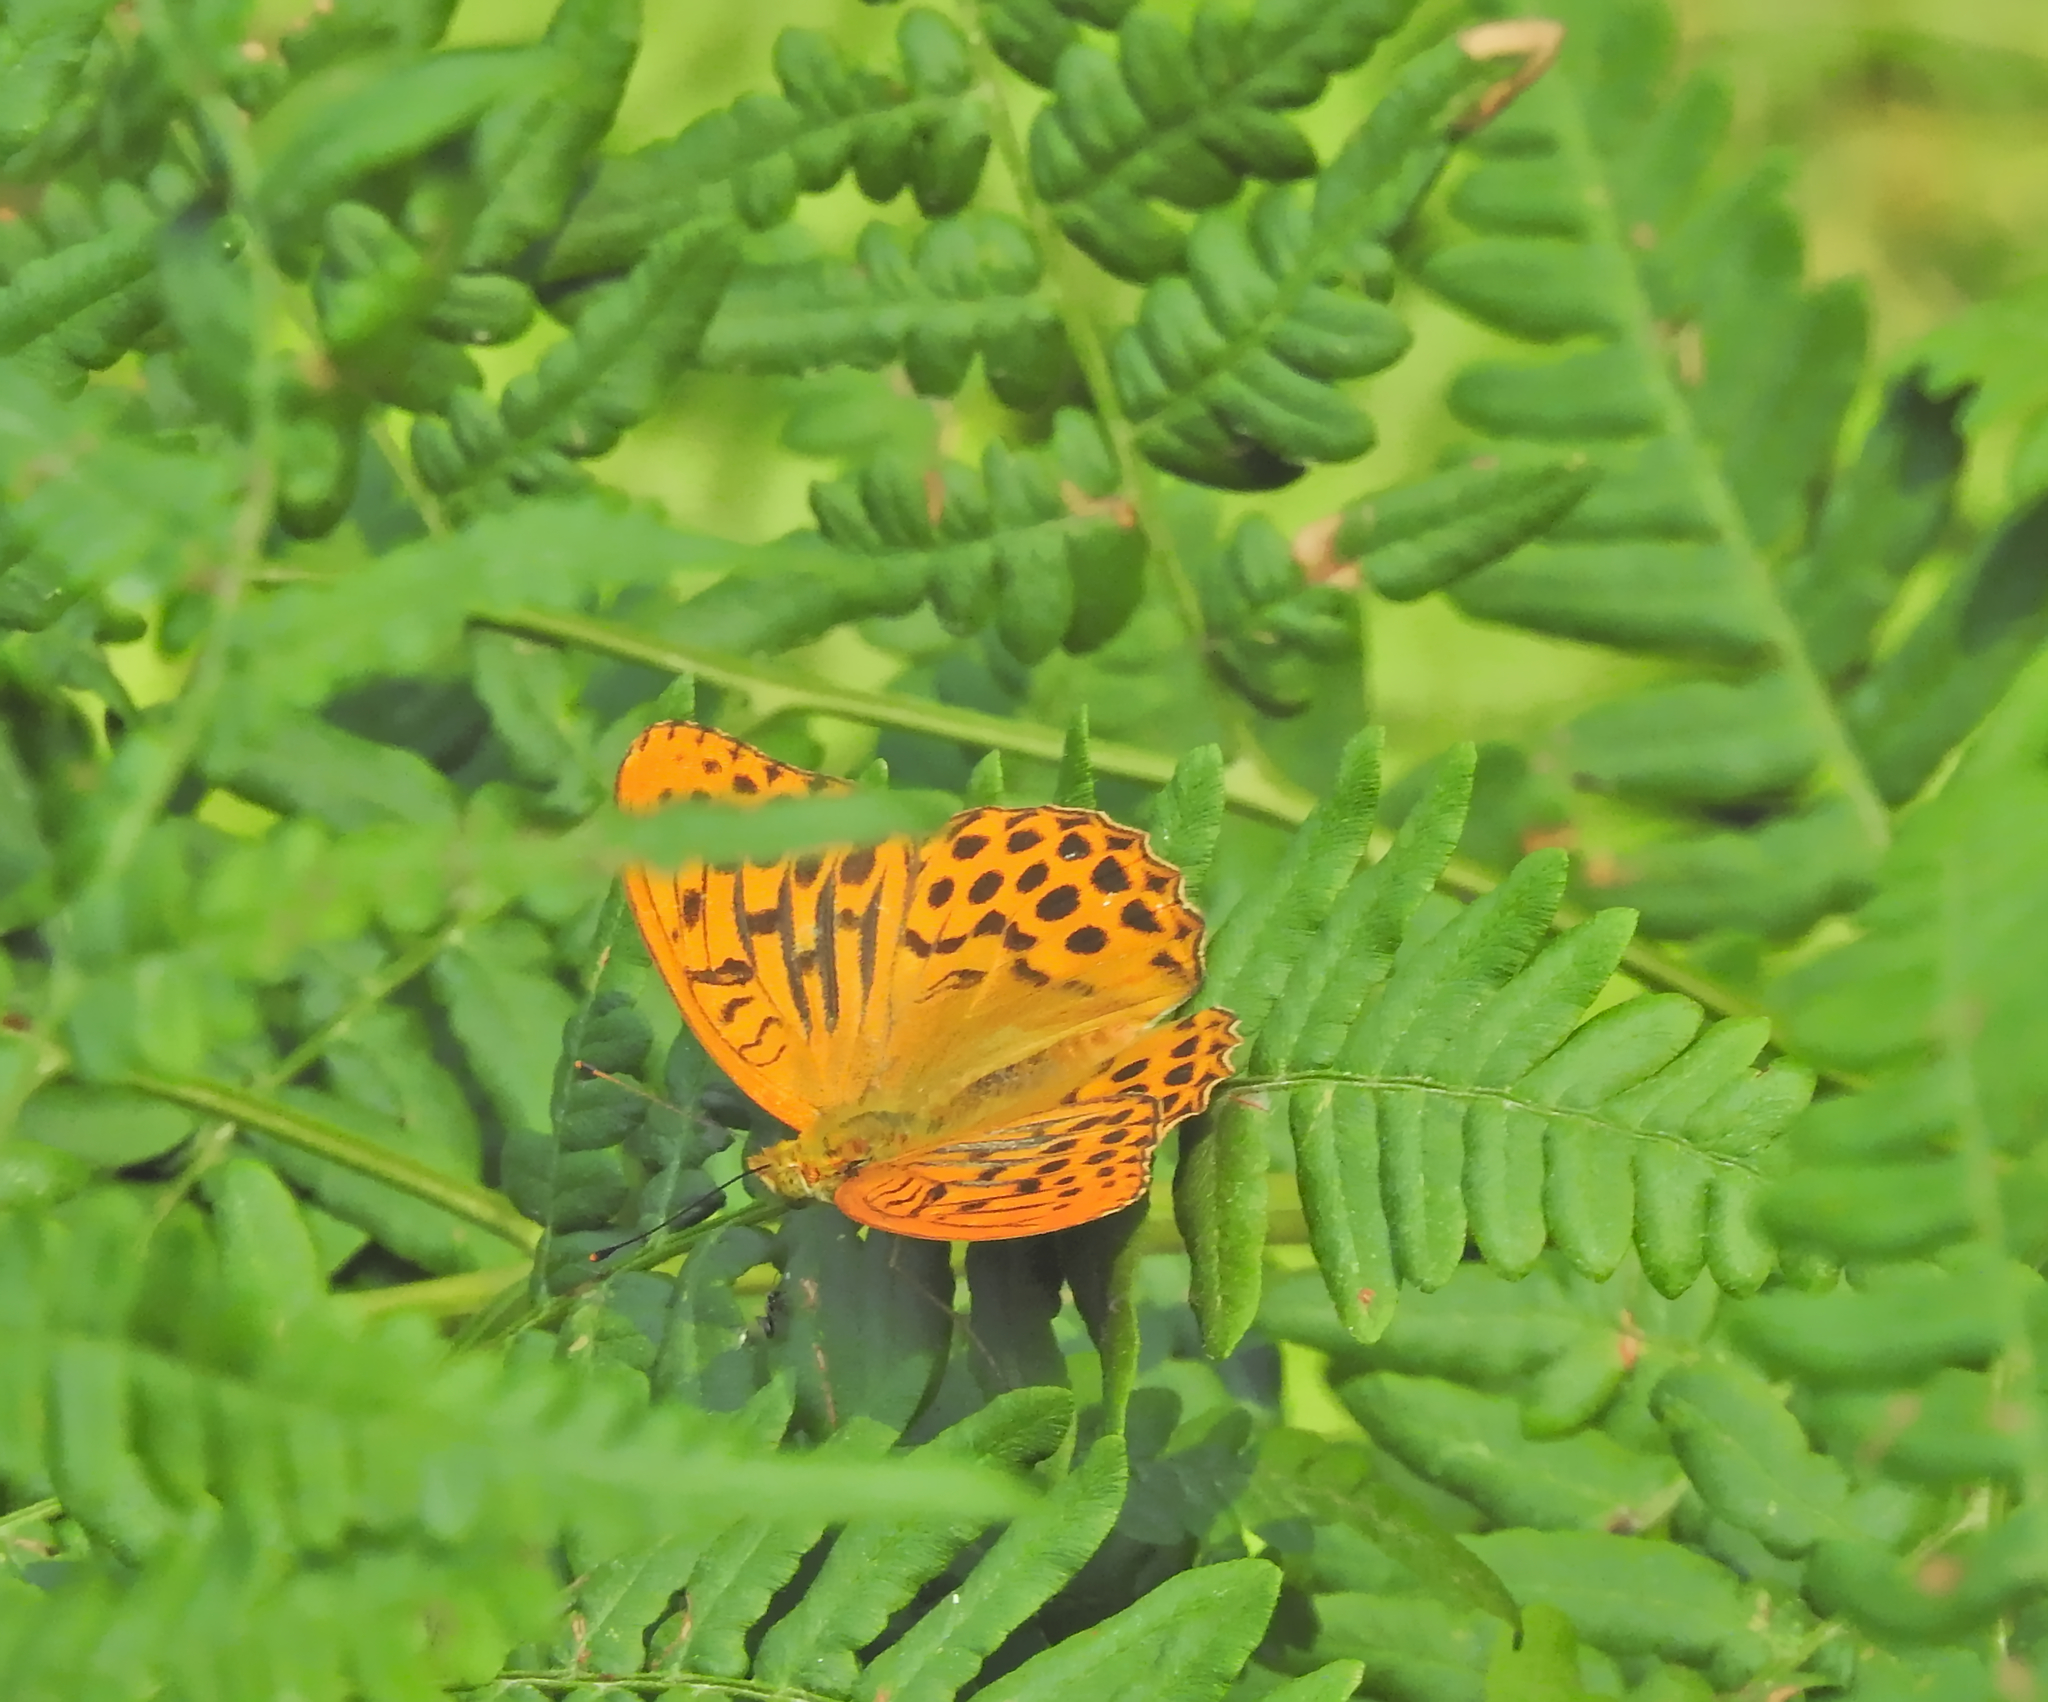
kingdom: Animalia
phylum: Arthropoda
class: Insecta
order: Lepidoptera
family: Nymphalidae
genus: Argynnis
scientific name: Argynnis paphia
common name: Silver-washed fritillary
